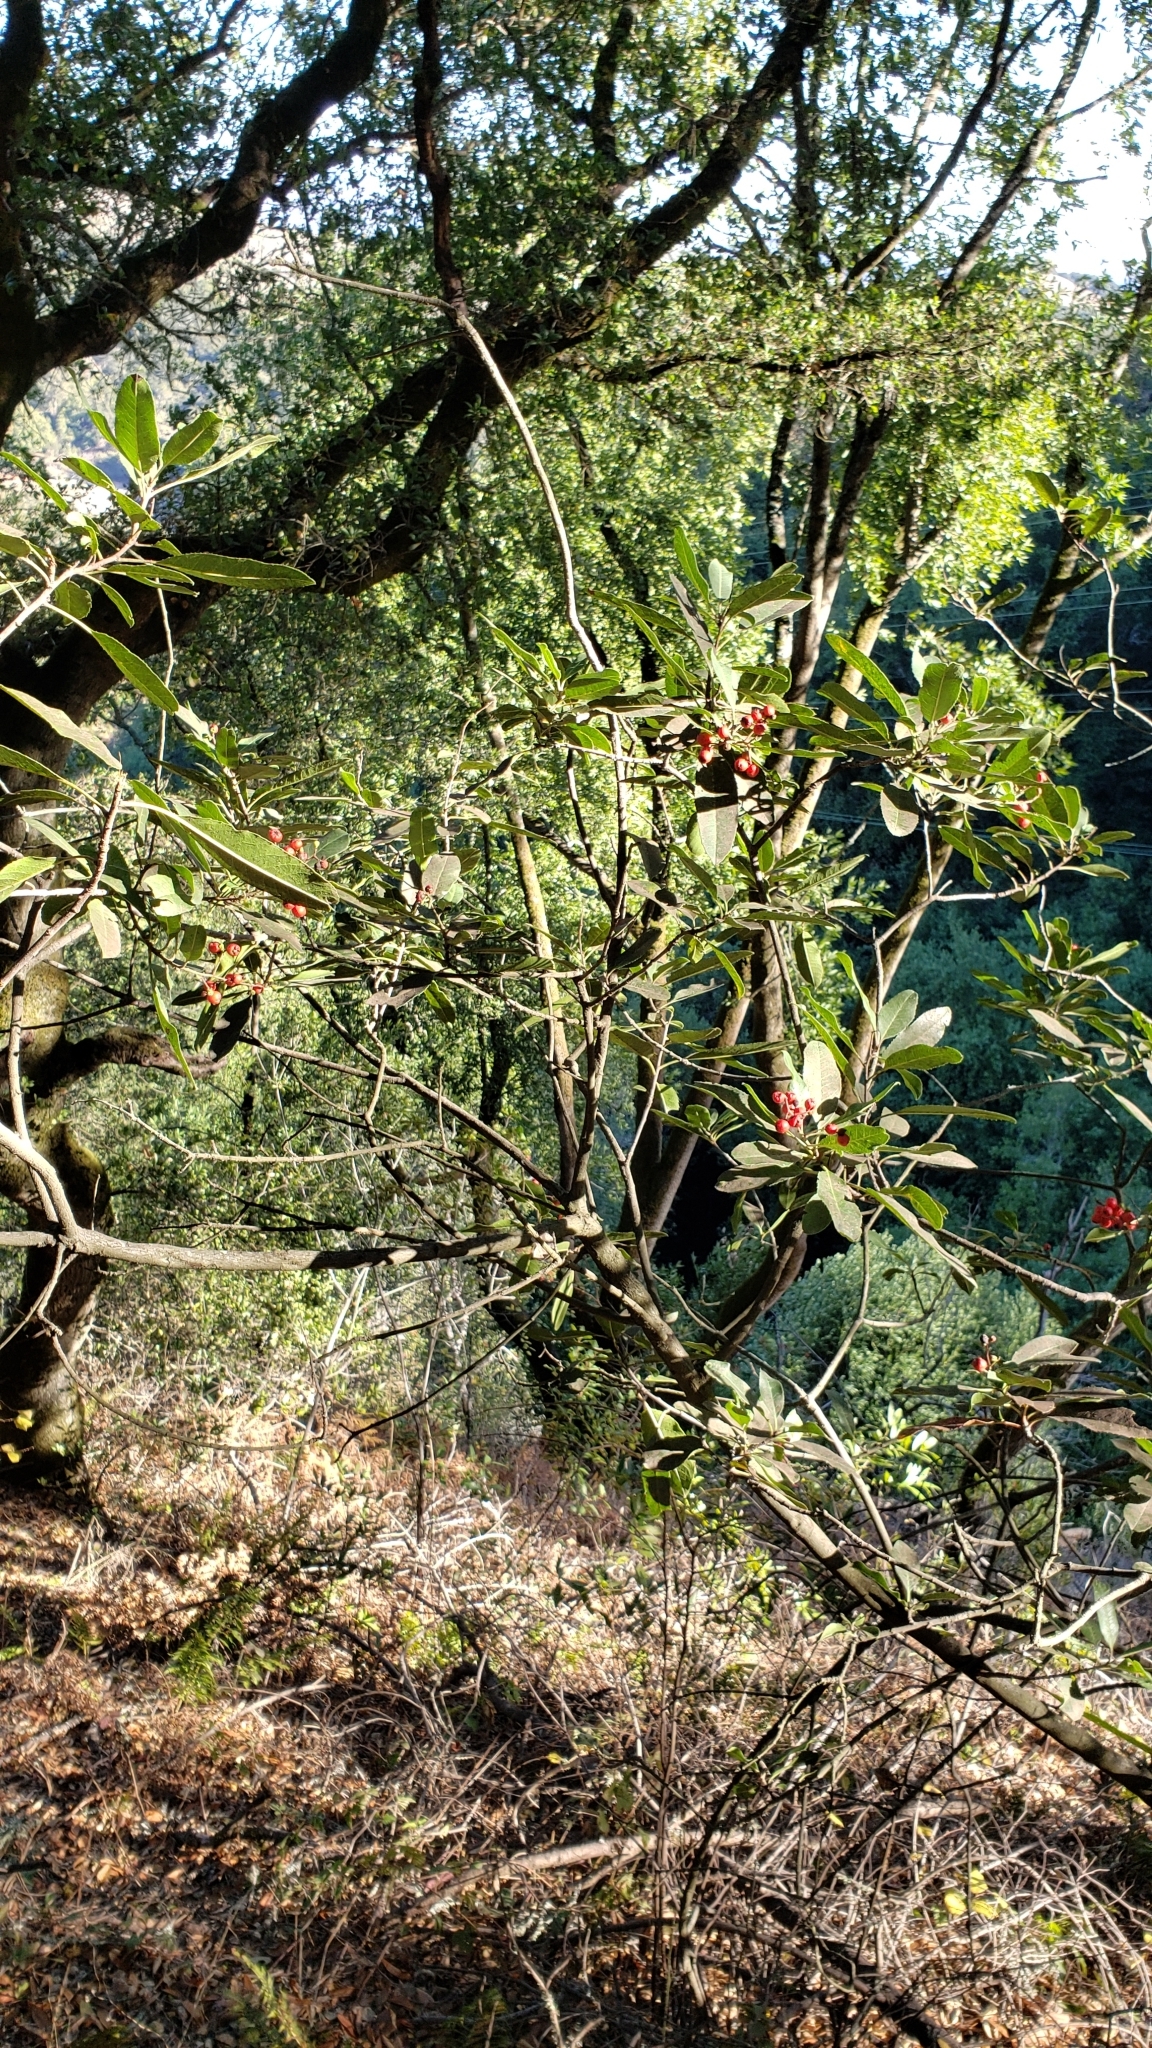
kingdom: Plantae
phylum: Tracheophyta
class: Magnoliopsida
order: Rosales
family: Rosaceae
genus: Heteromeles
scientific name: Heteromeles arbutifolia
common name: California-holly
